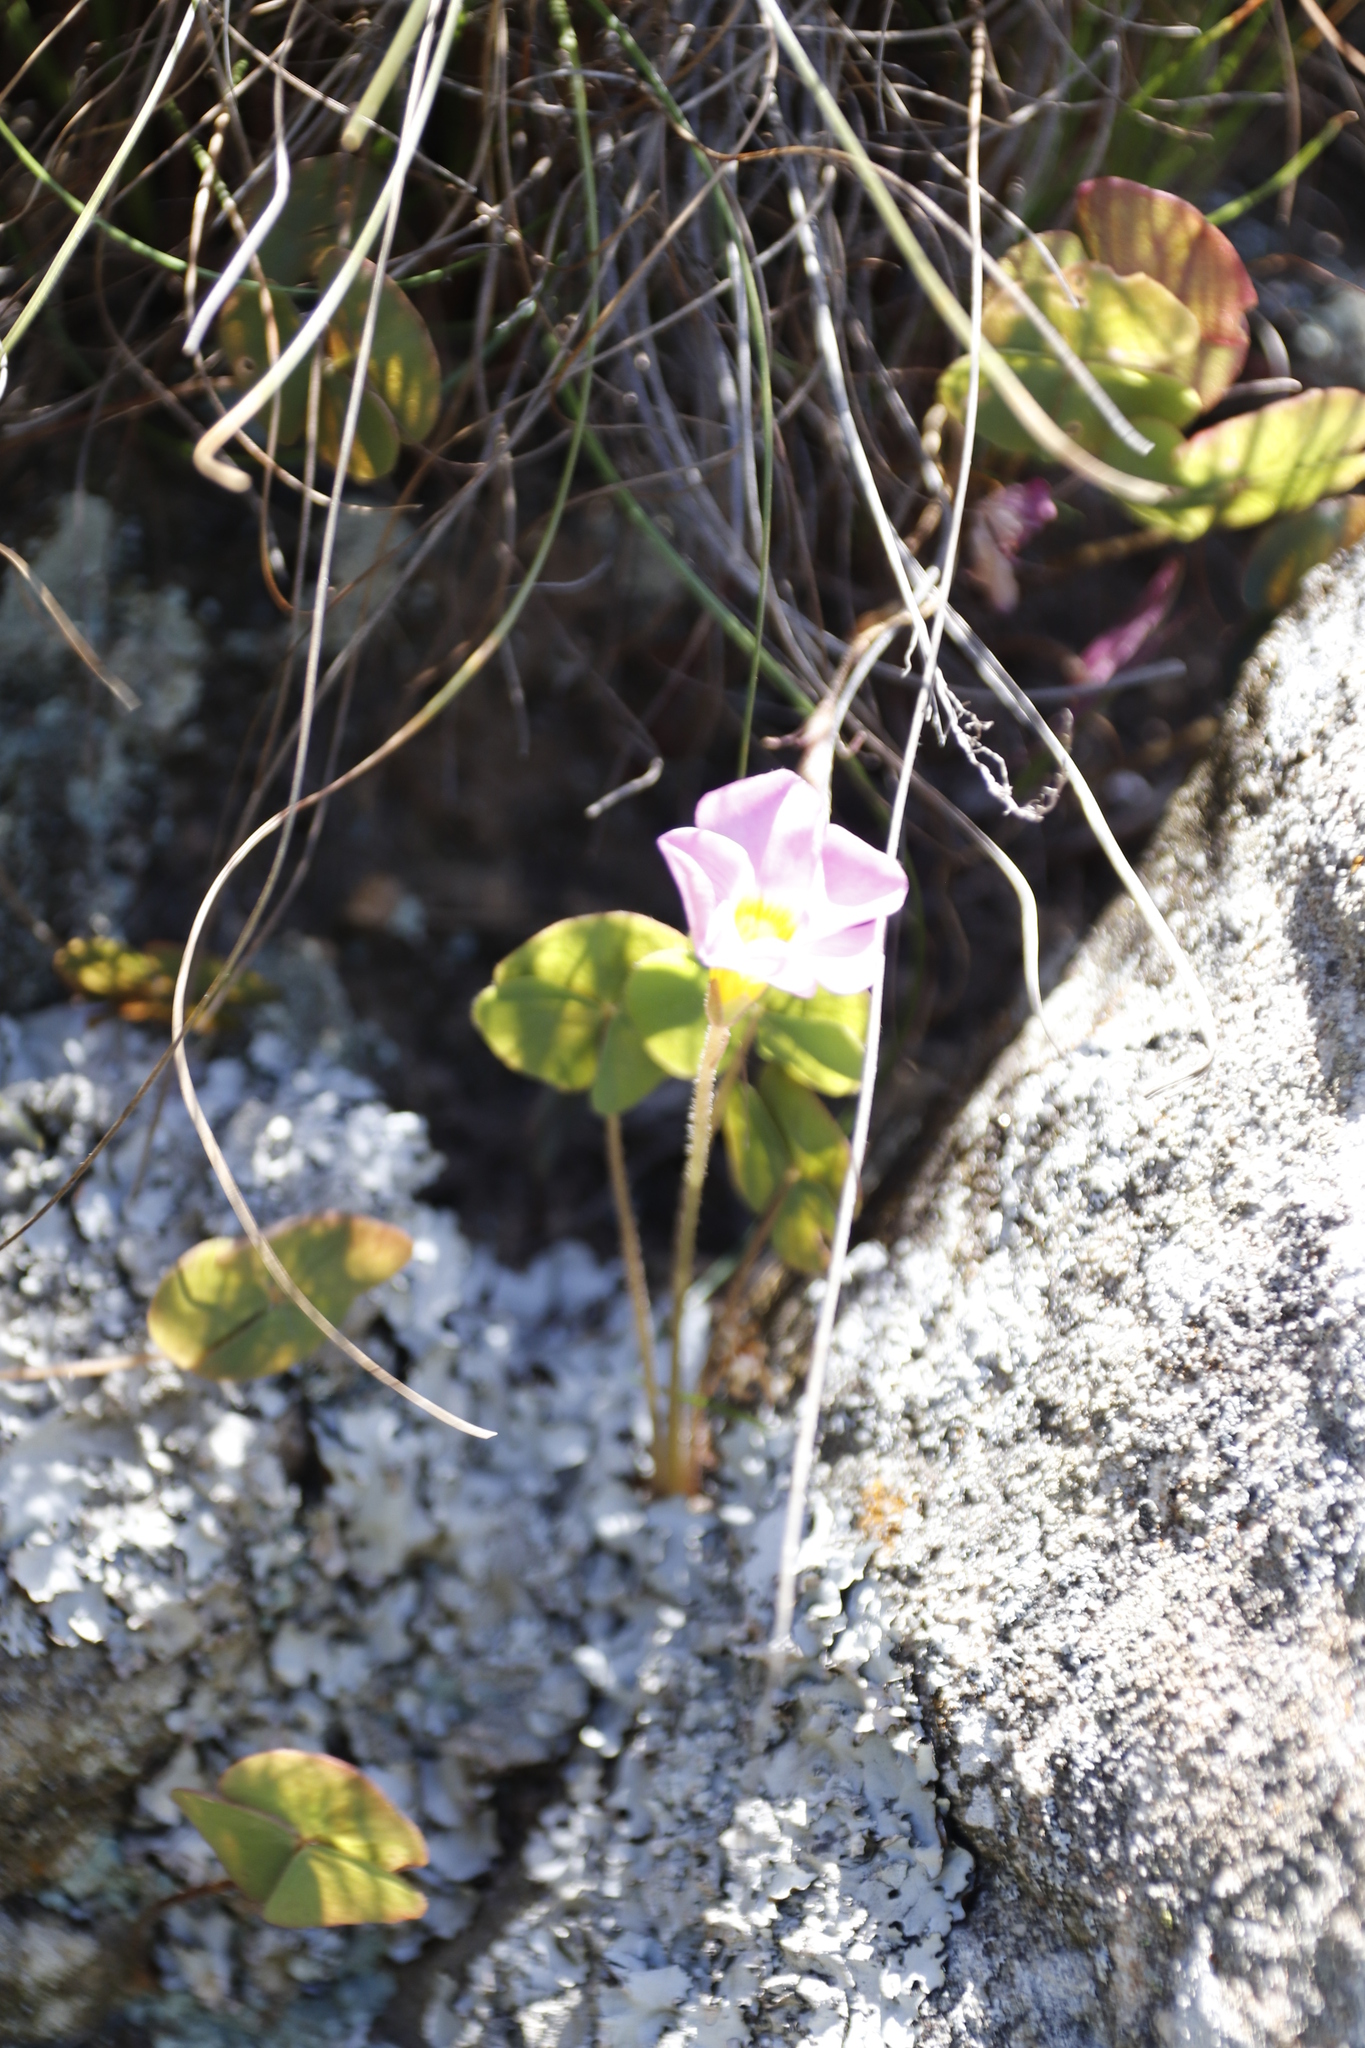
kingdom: Plantae
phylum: Tracheophyta
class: Magnoliopsida
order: Oxalidales
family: Oxalidaceae
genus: Oxalis
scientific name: Oxalis obliquifolia
